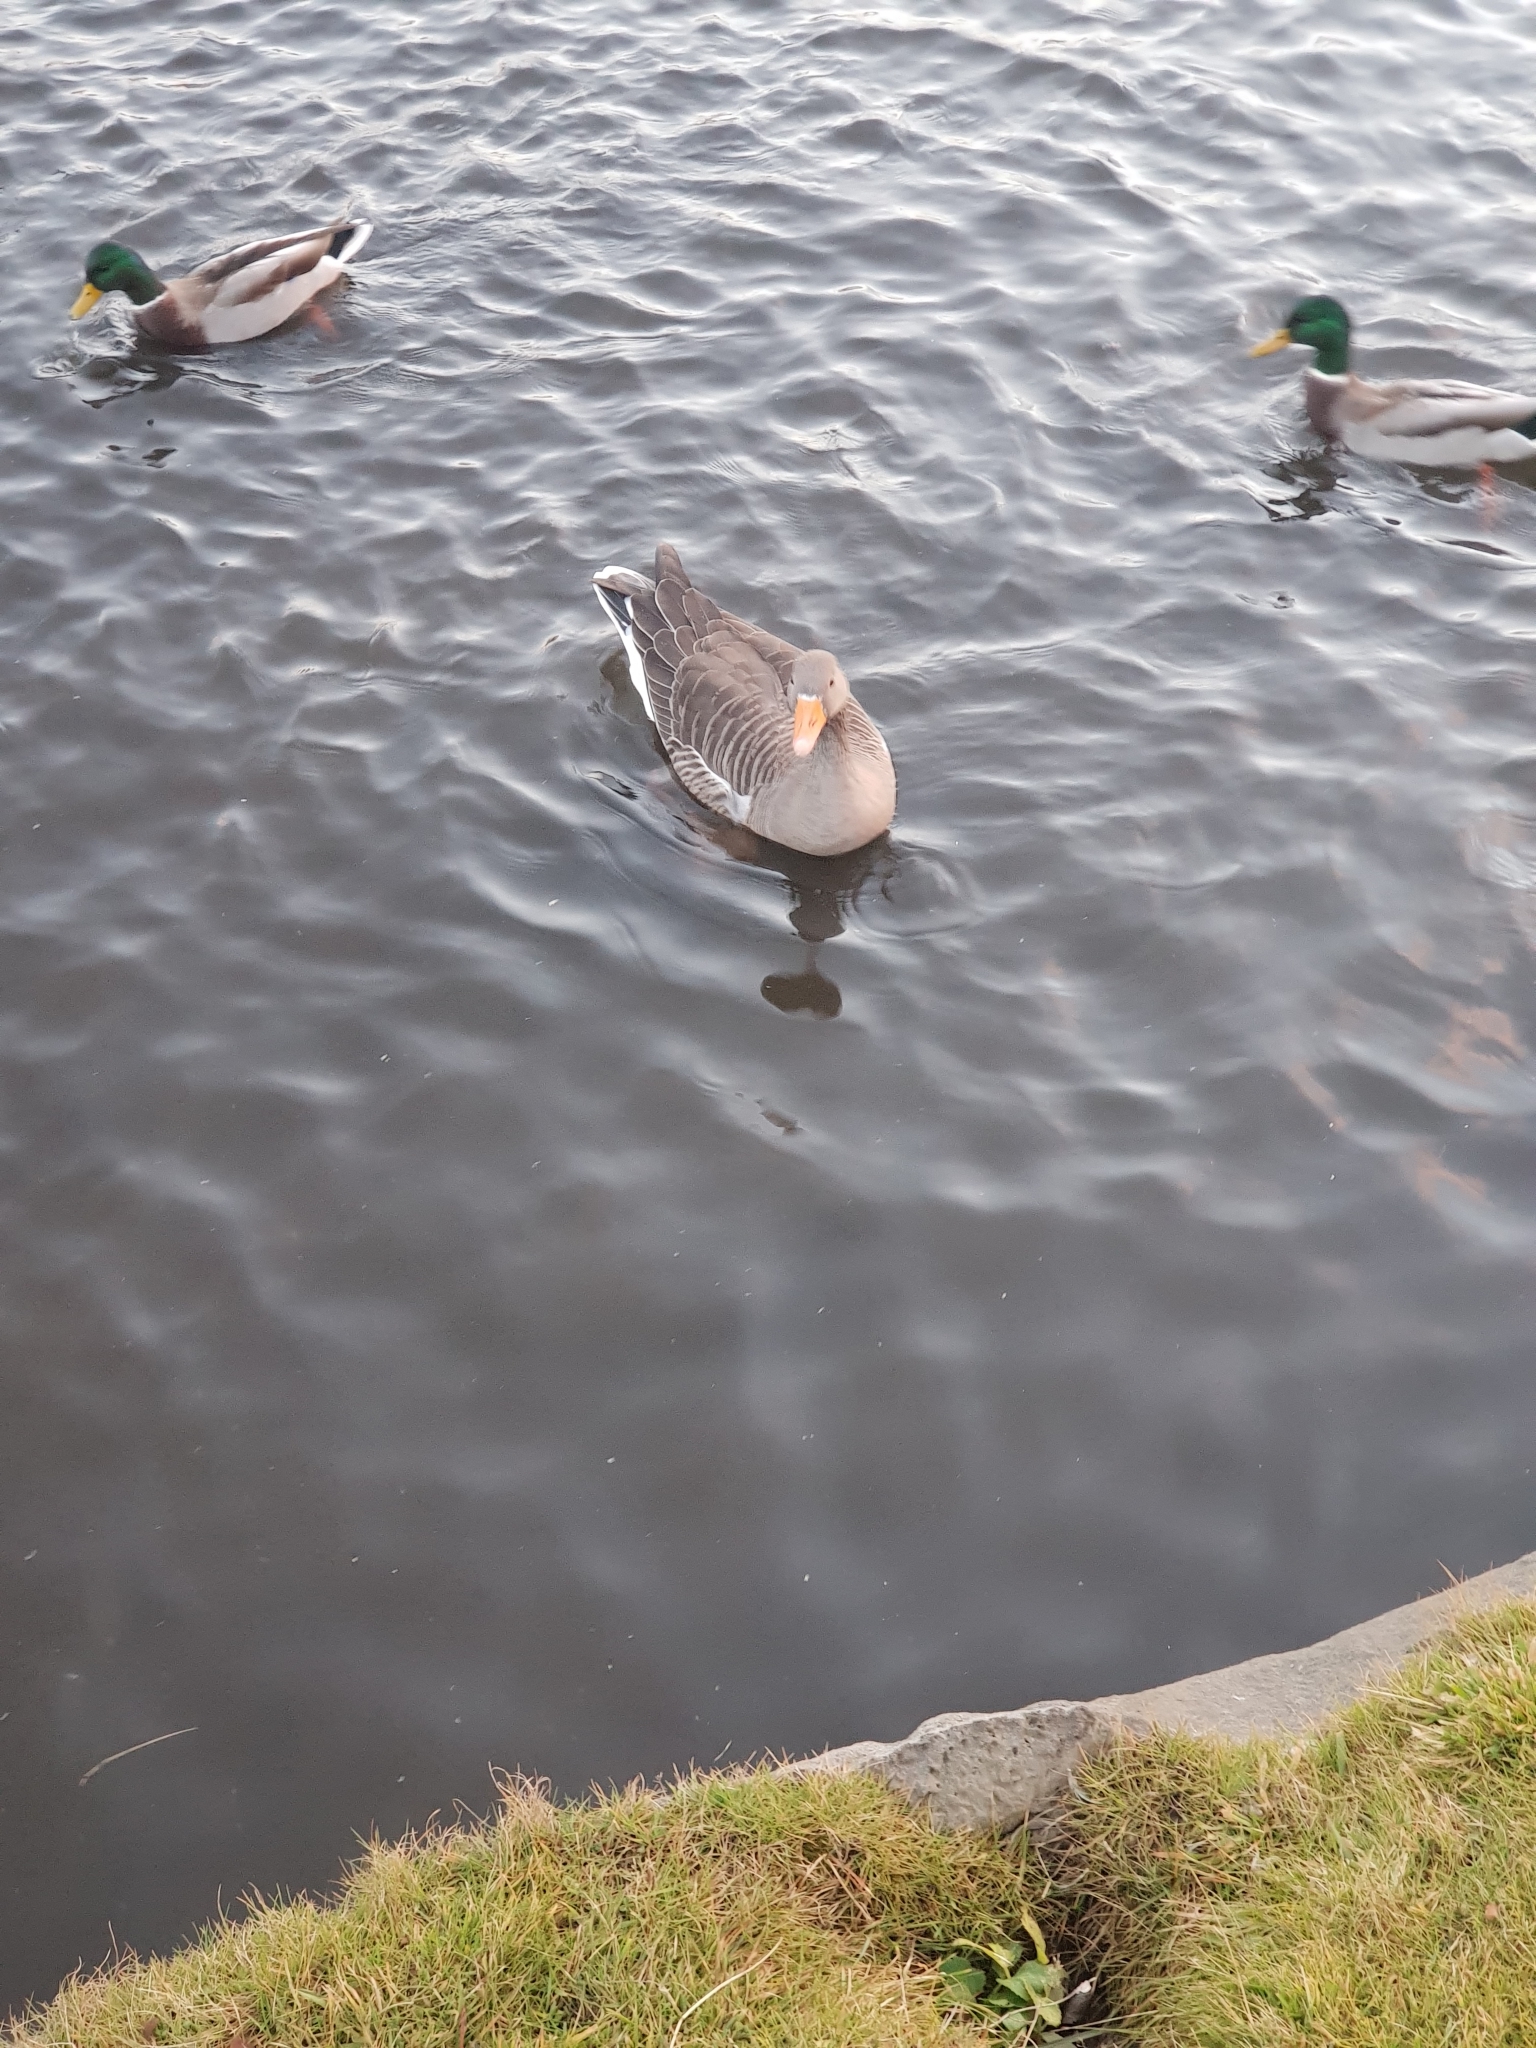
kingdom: Animalia
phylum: Chordata
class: Aves
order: Anseriformes
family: Anatidae
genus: Anser
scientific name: Anser anser
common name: Greylag goose
